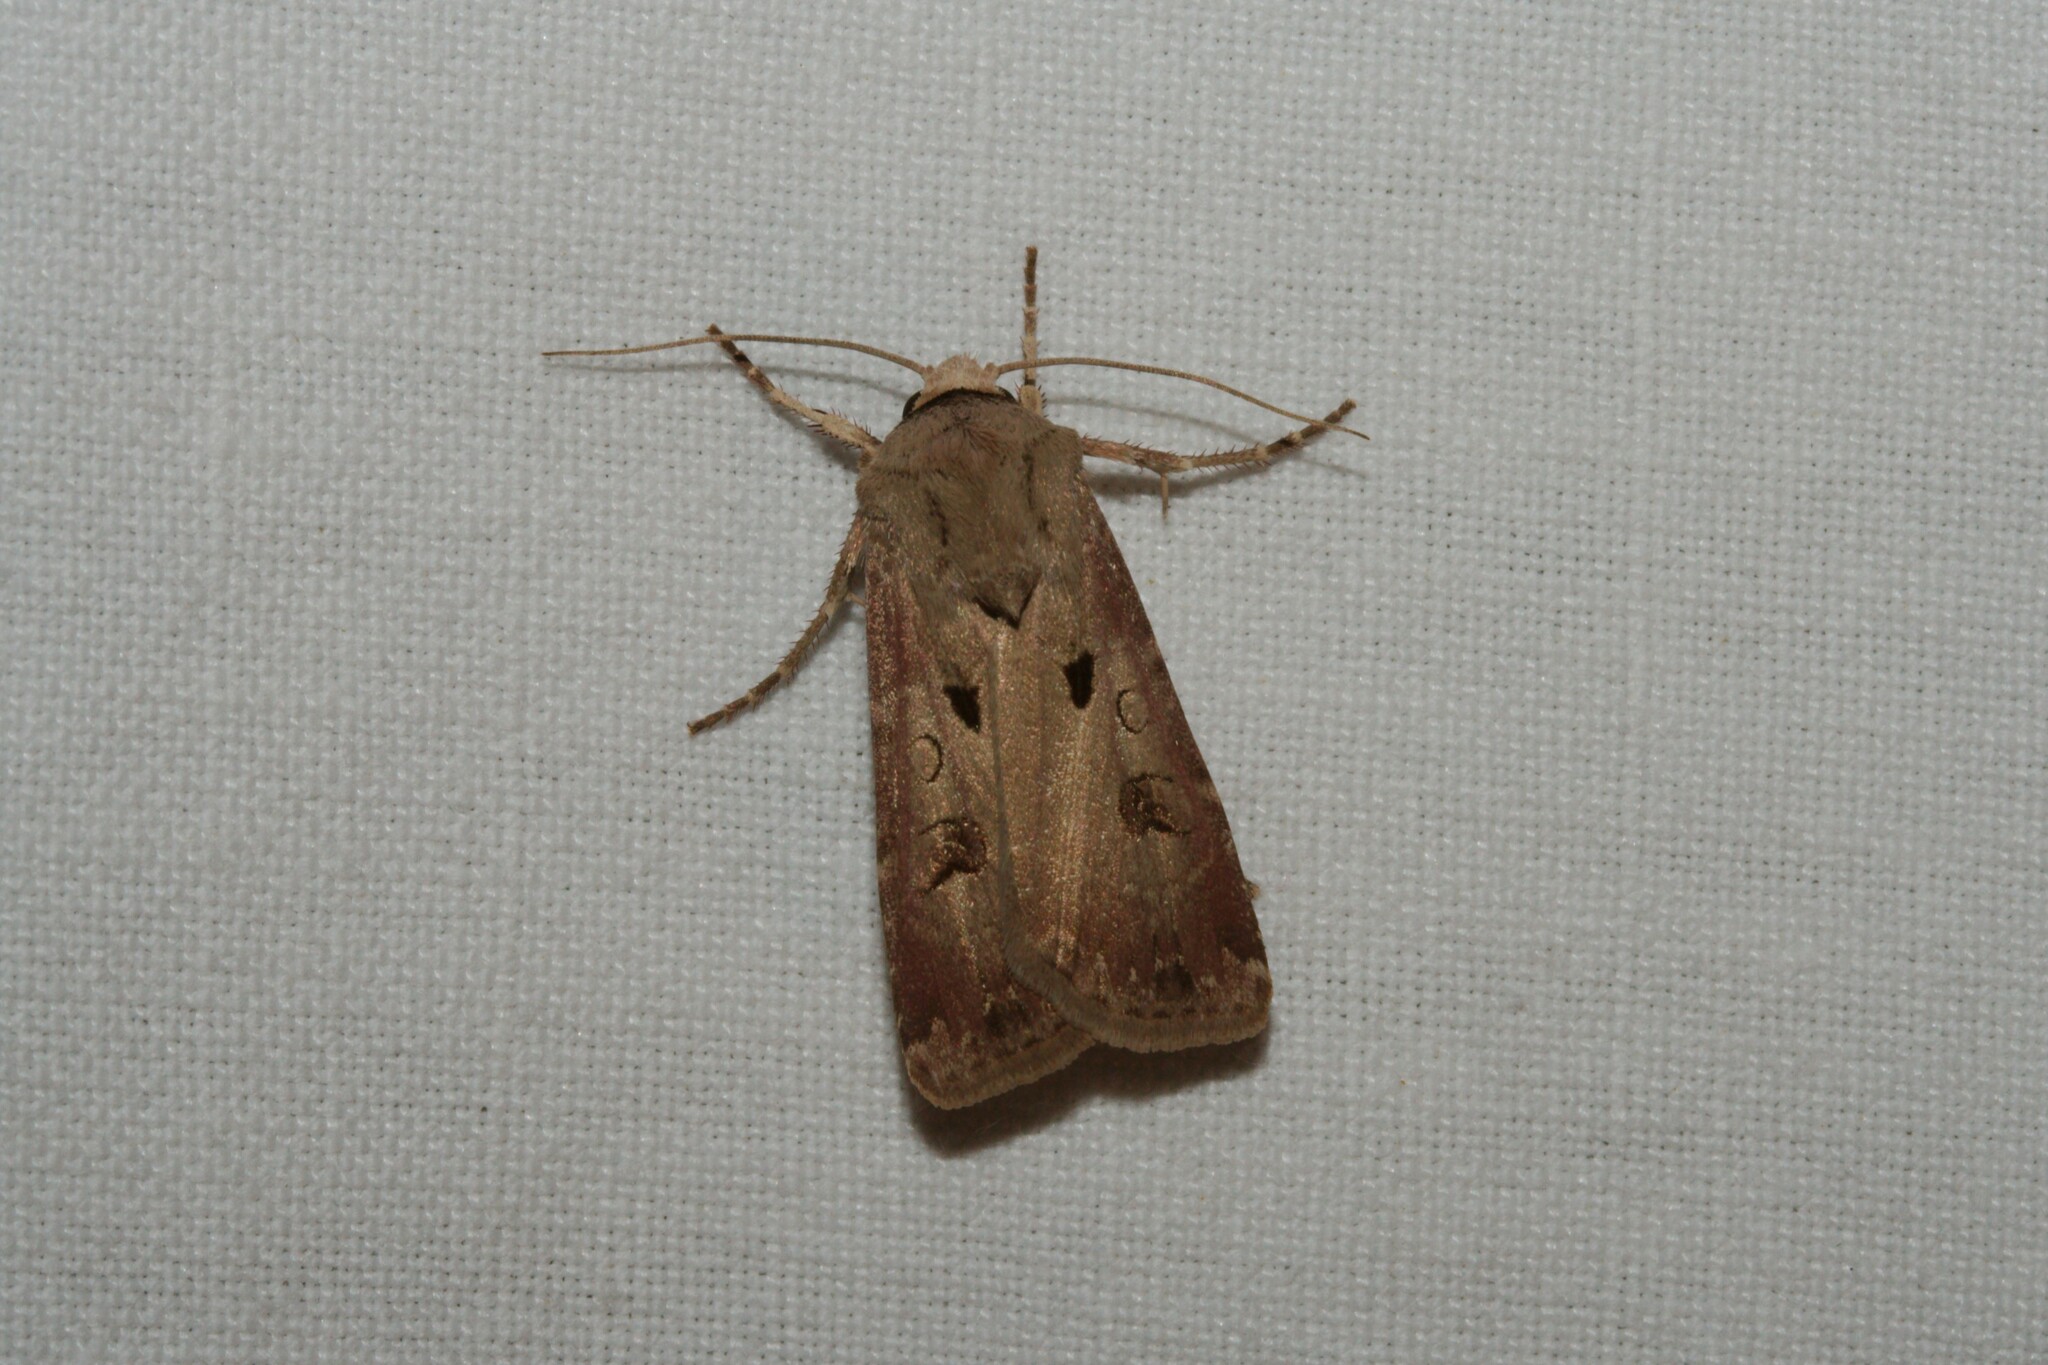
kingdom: Animalia
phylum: Arthropoda
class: Insecta
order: Lepidoptera
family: Noctuidae
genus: Agrotis
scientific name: Agrotis exclamationis
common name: Heart and dart
